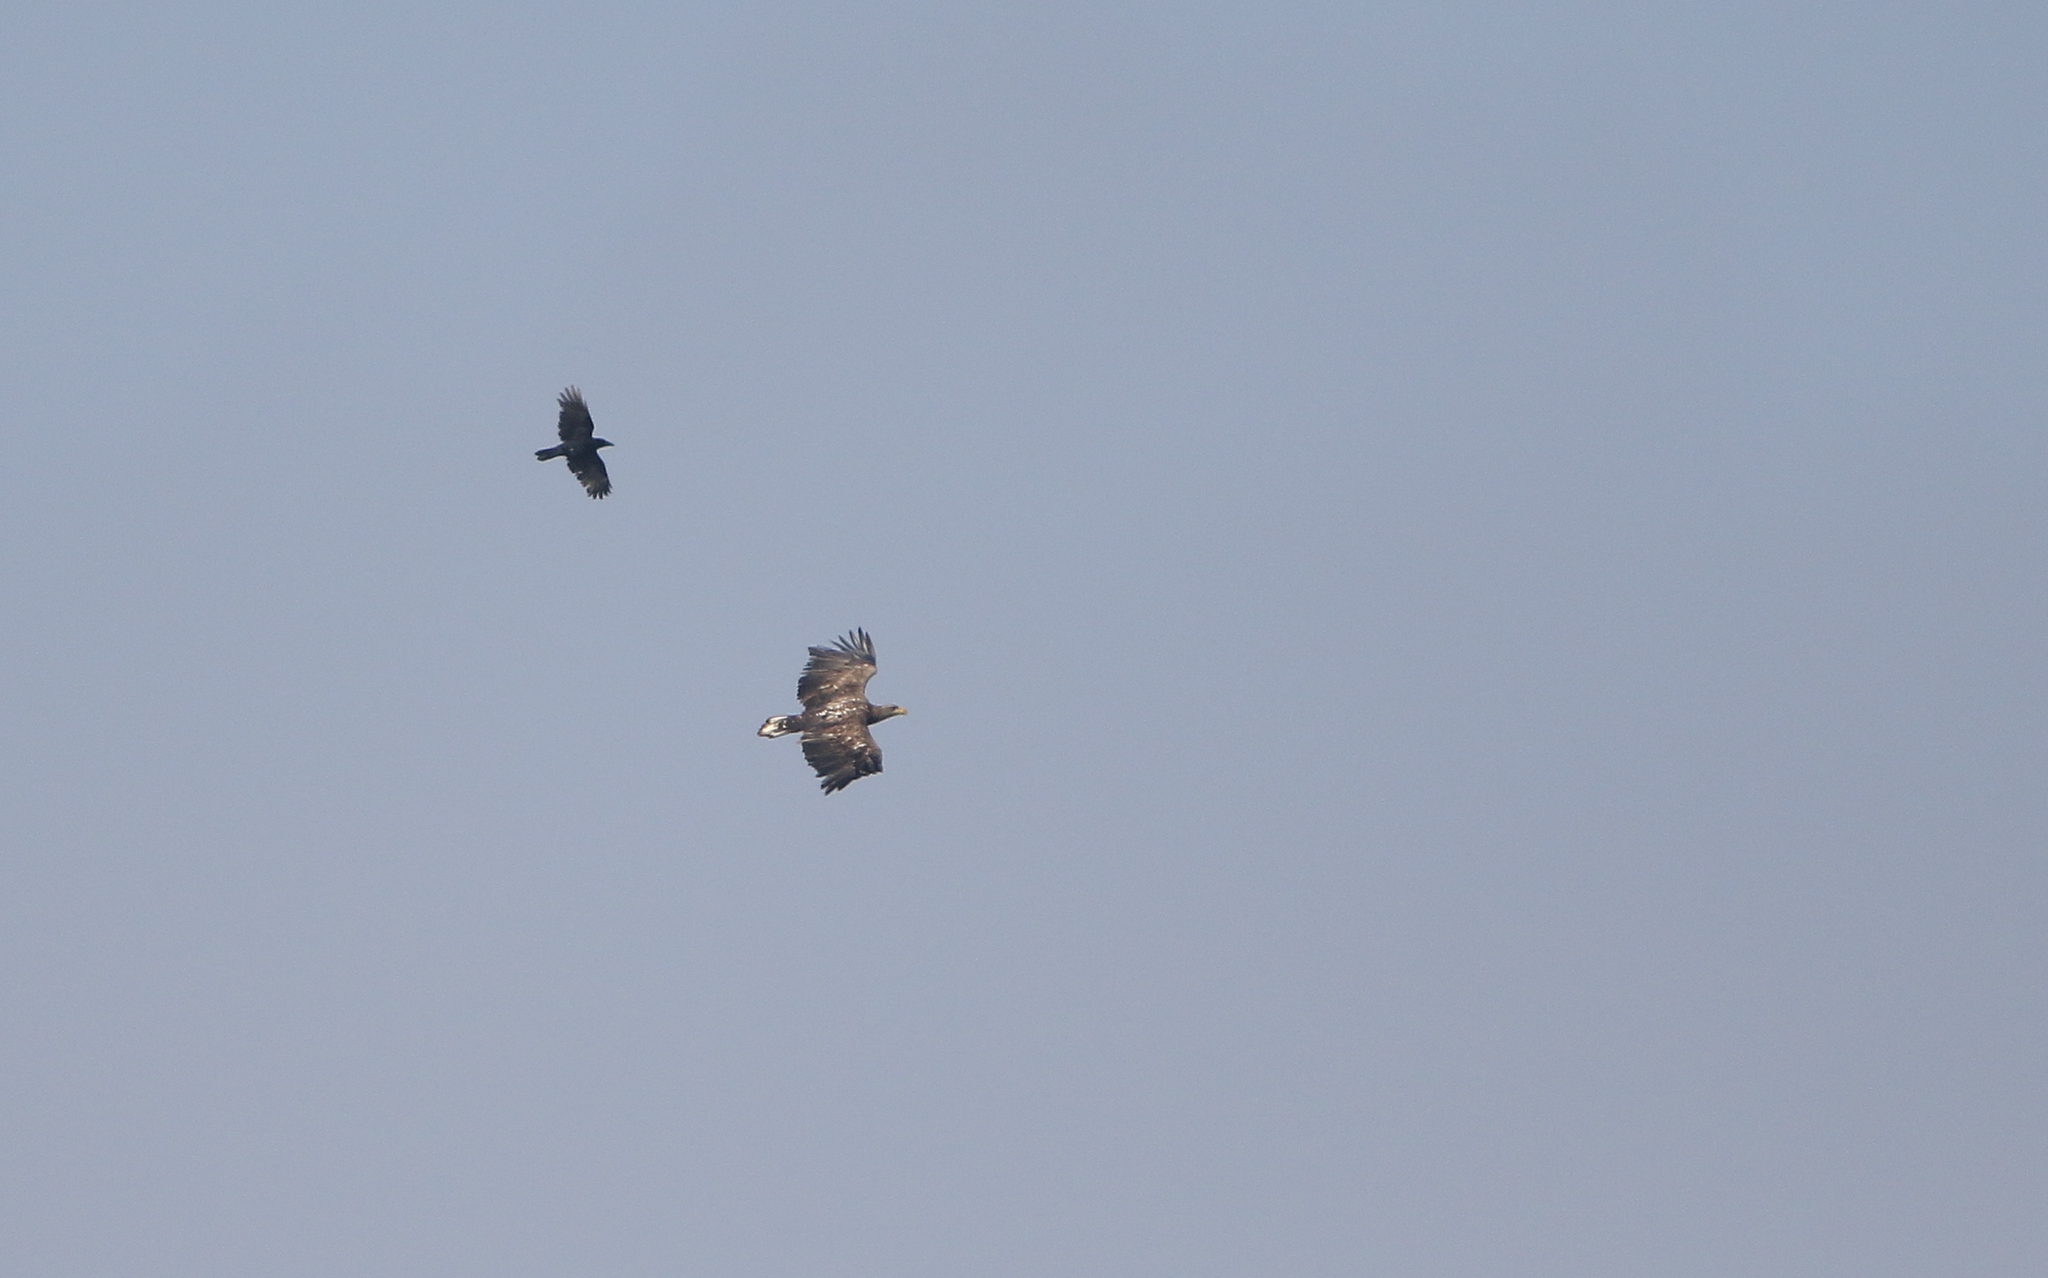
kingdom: Animalia
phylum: Chordata
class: Aves
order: Accipitriformes
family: Accipitridae
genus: Haliaeetus
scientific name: Haliaeetus albicilla
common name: White-tailed eagle
